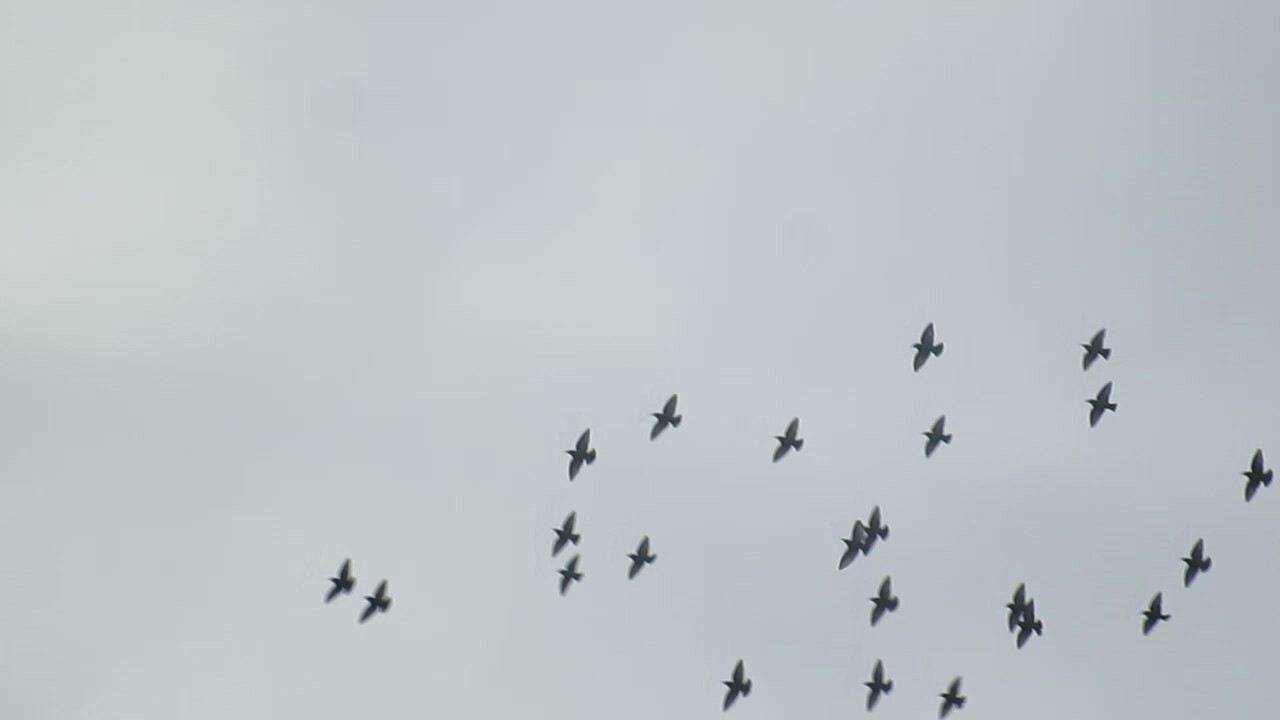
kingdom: Animalia
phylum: Chordata
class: Aves
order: Passeriformes
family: Sturnidae
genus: Sturnus
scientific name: Sturnus vulgaris
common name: Common starling
